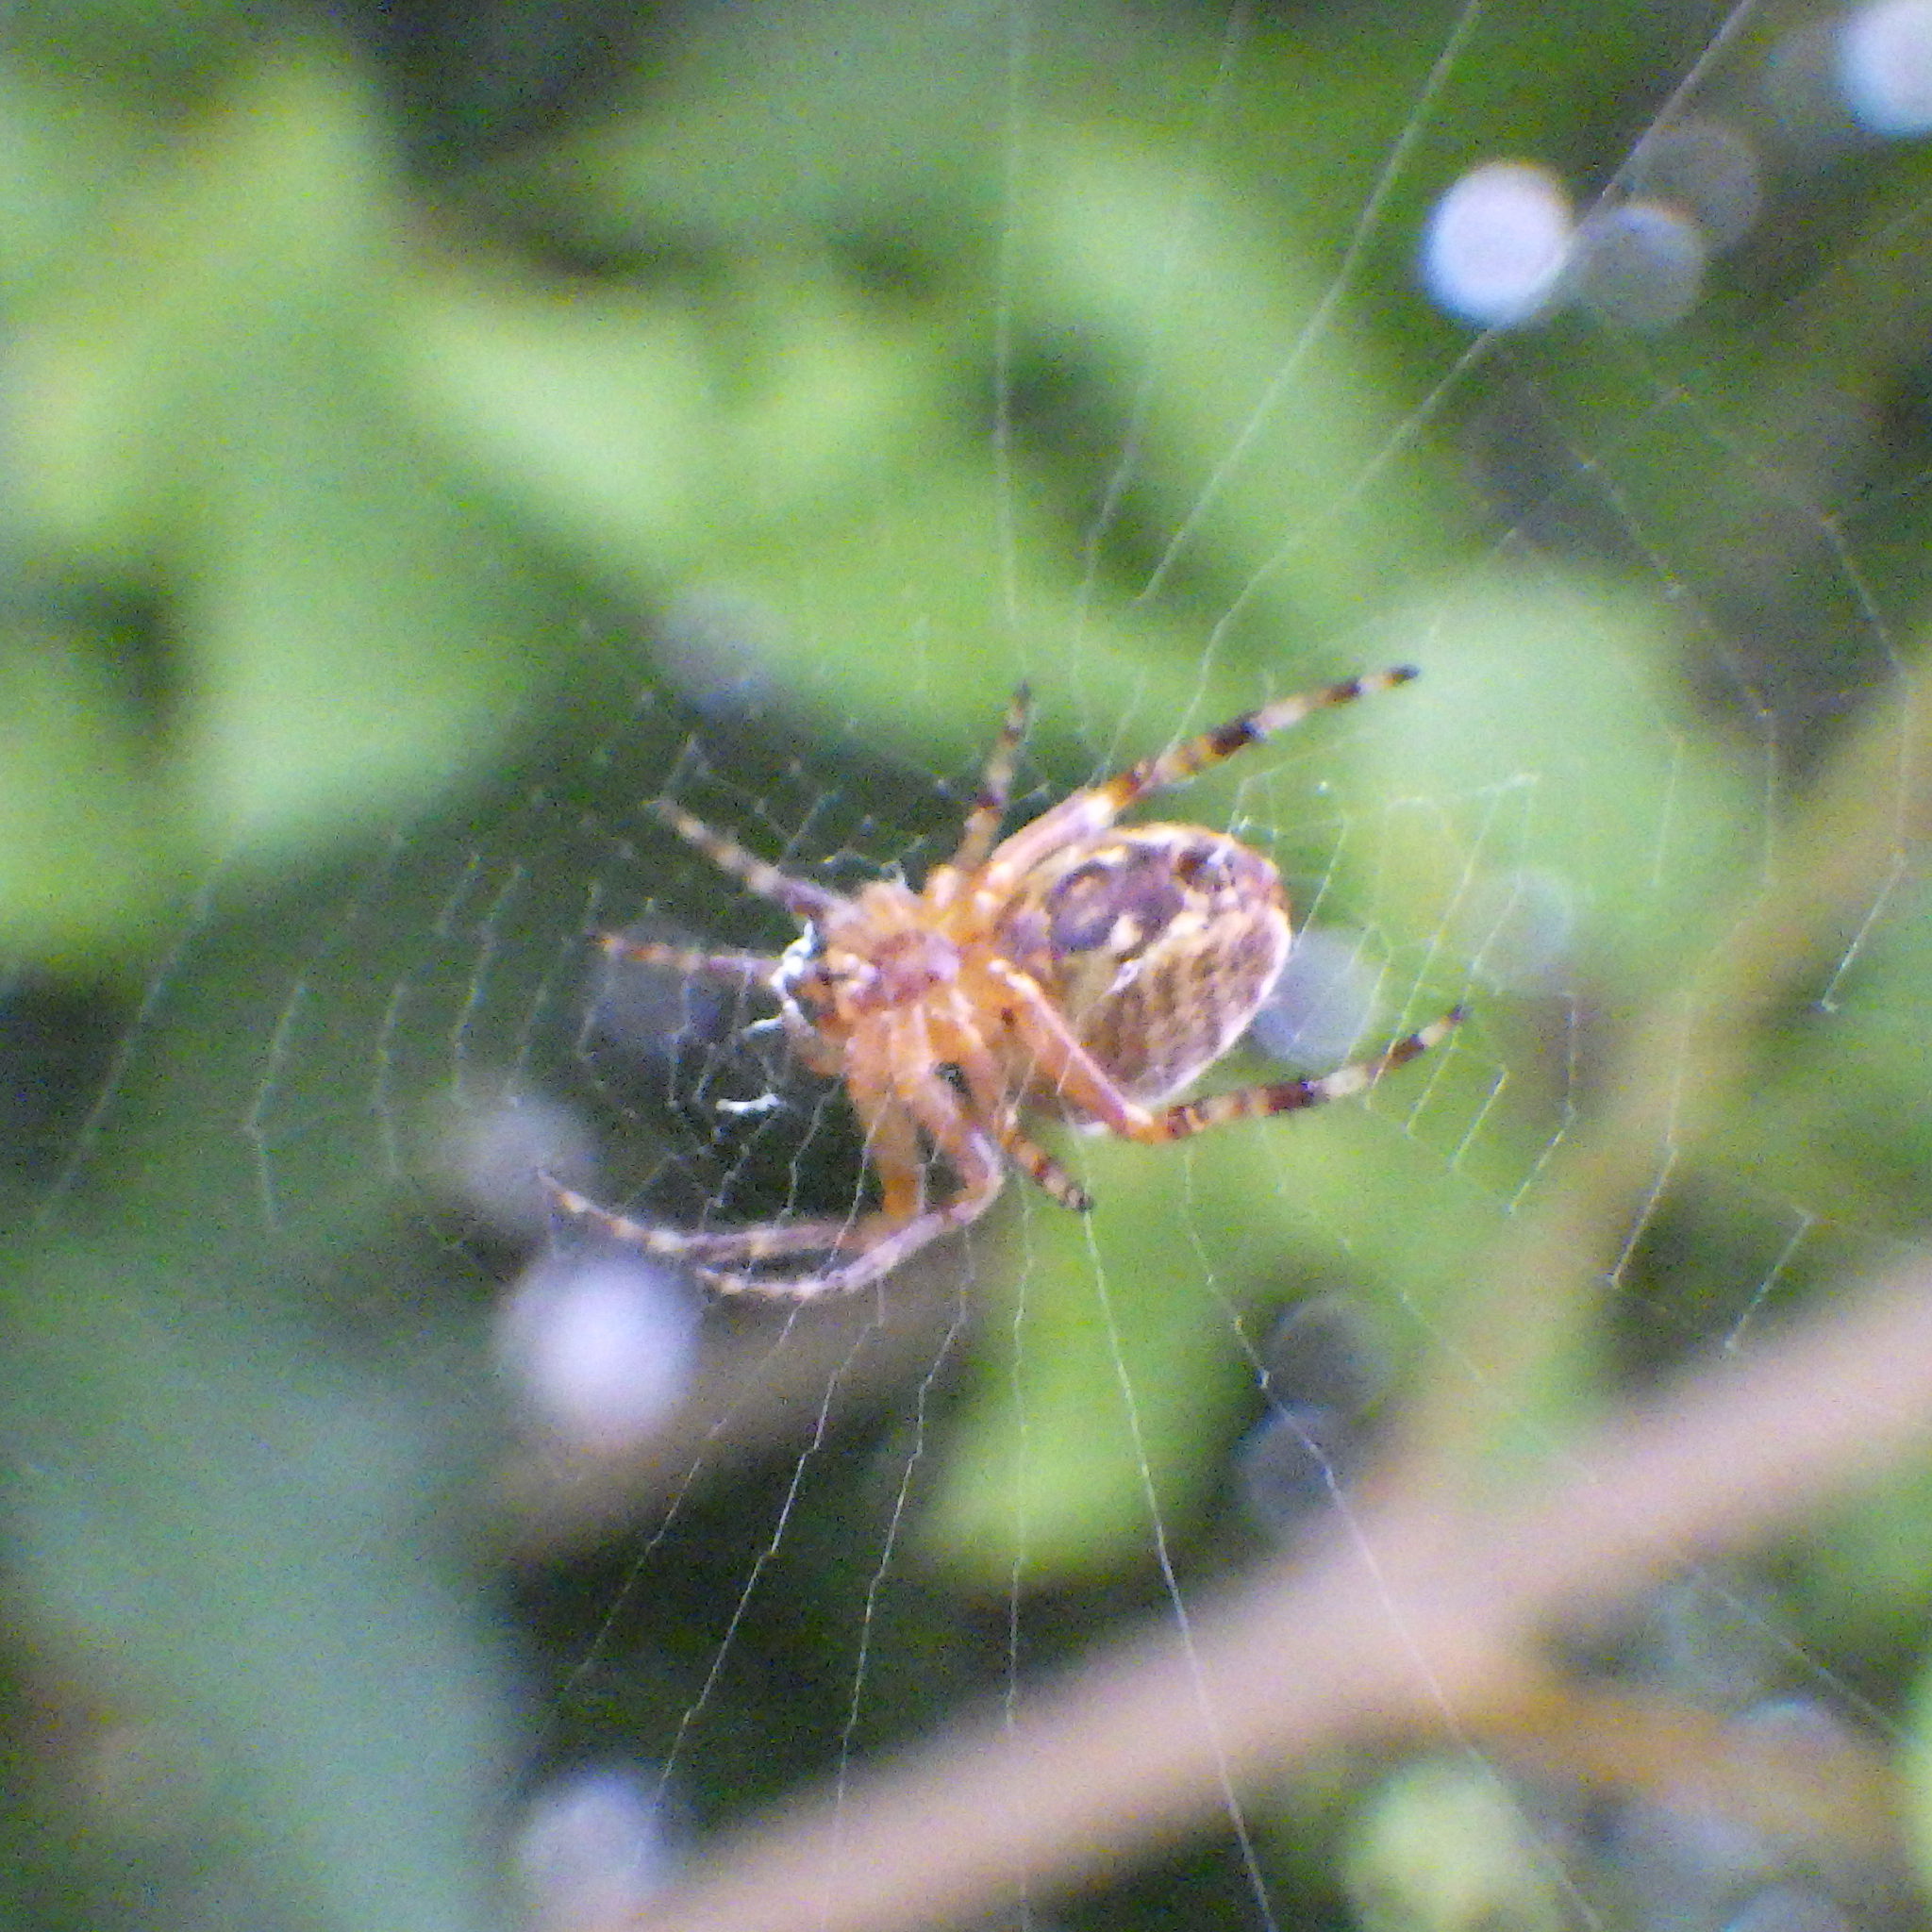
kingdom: Animalia
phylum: Arthropoda
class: Arachnida
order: Araneae
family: Araneidae
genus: Araneus
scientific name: Araneus diadematus
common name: Cross orbweaver
